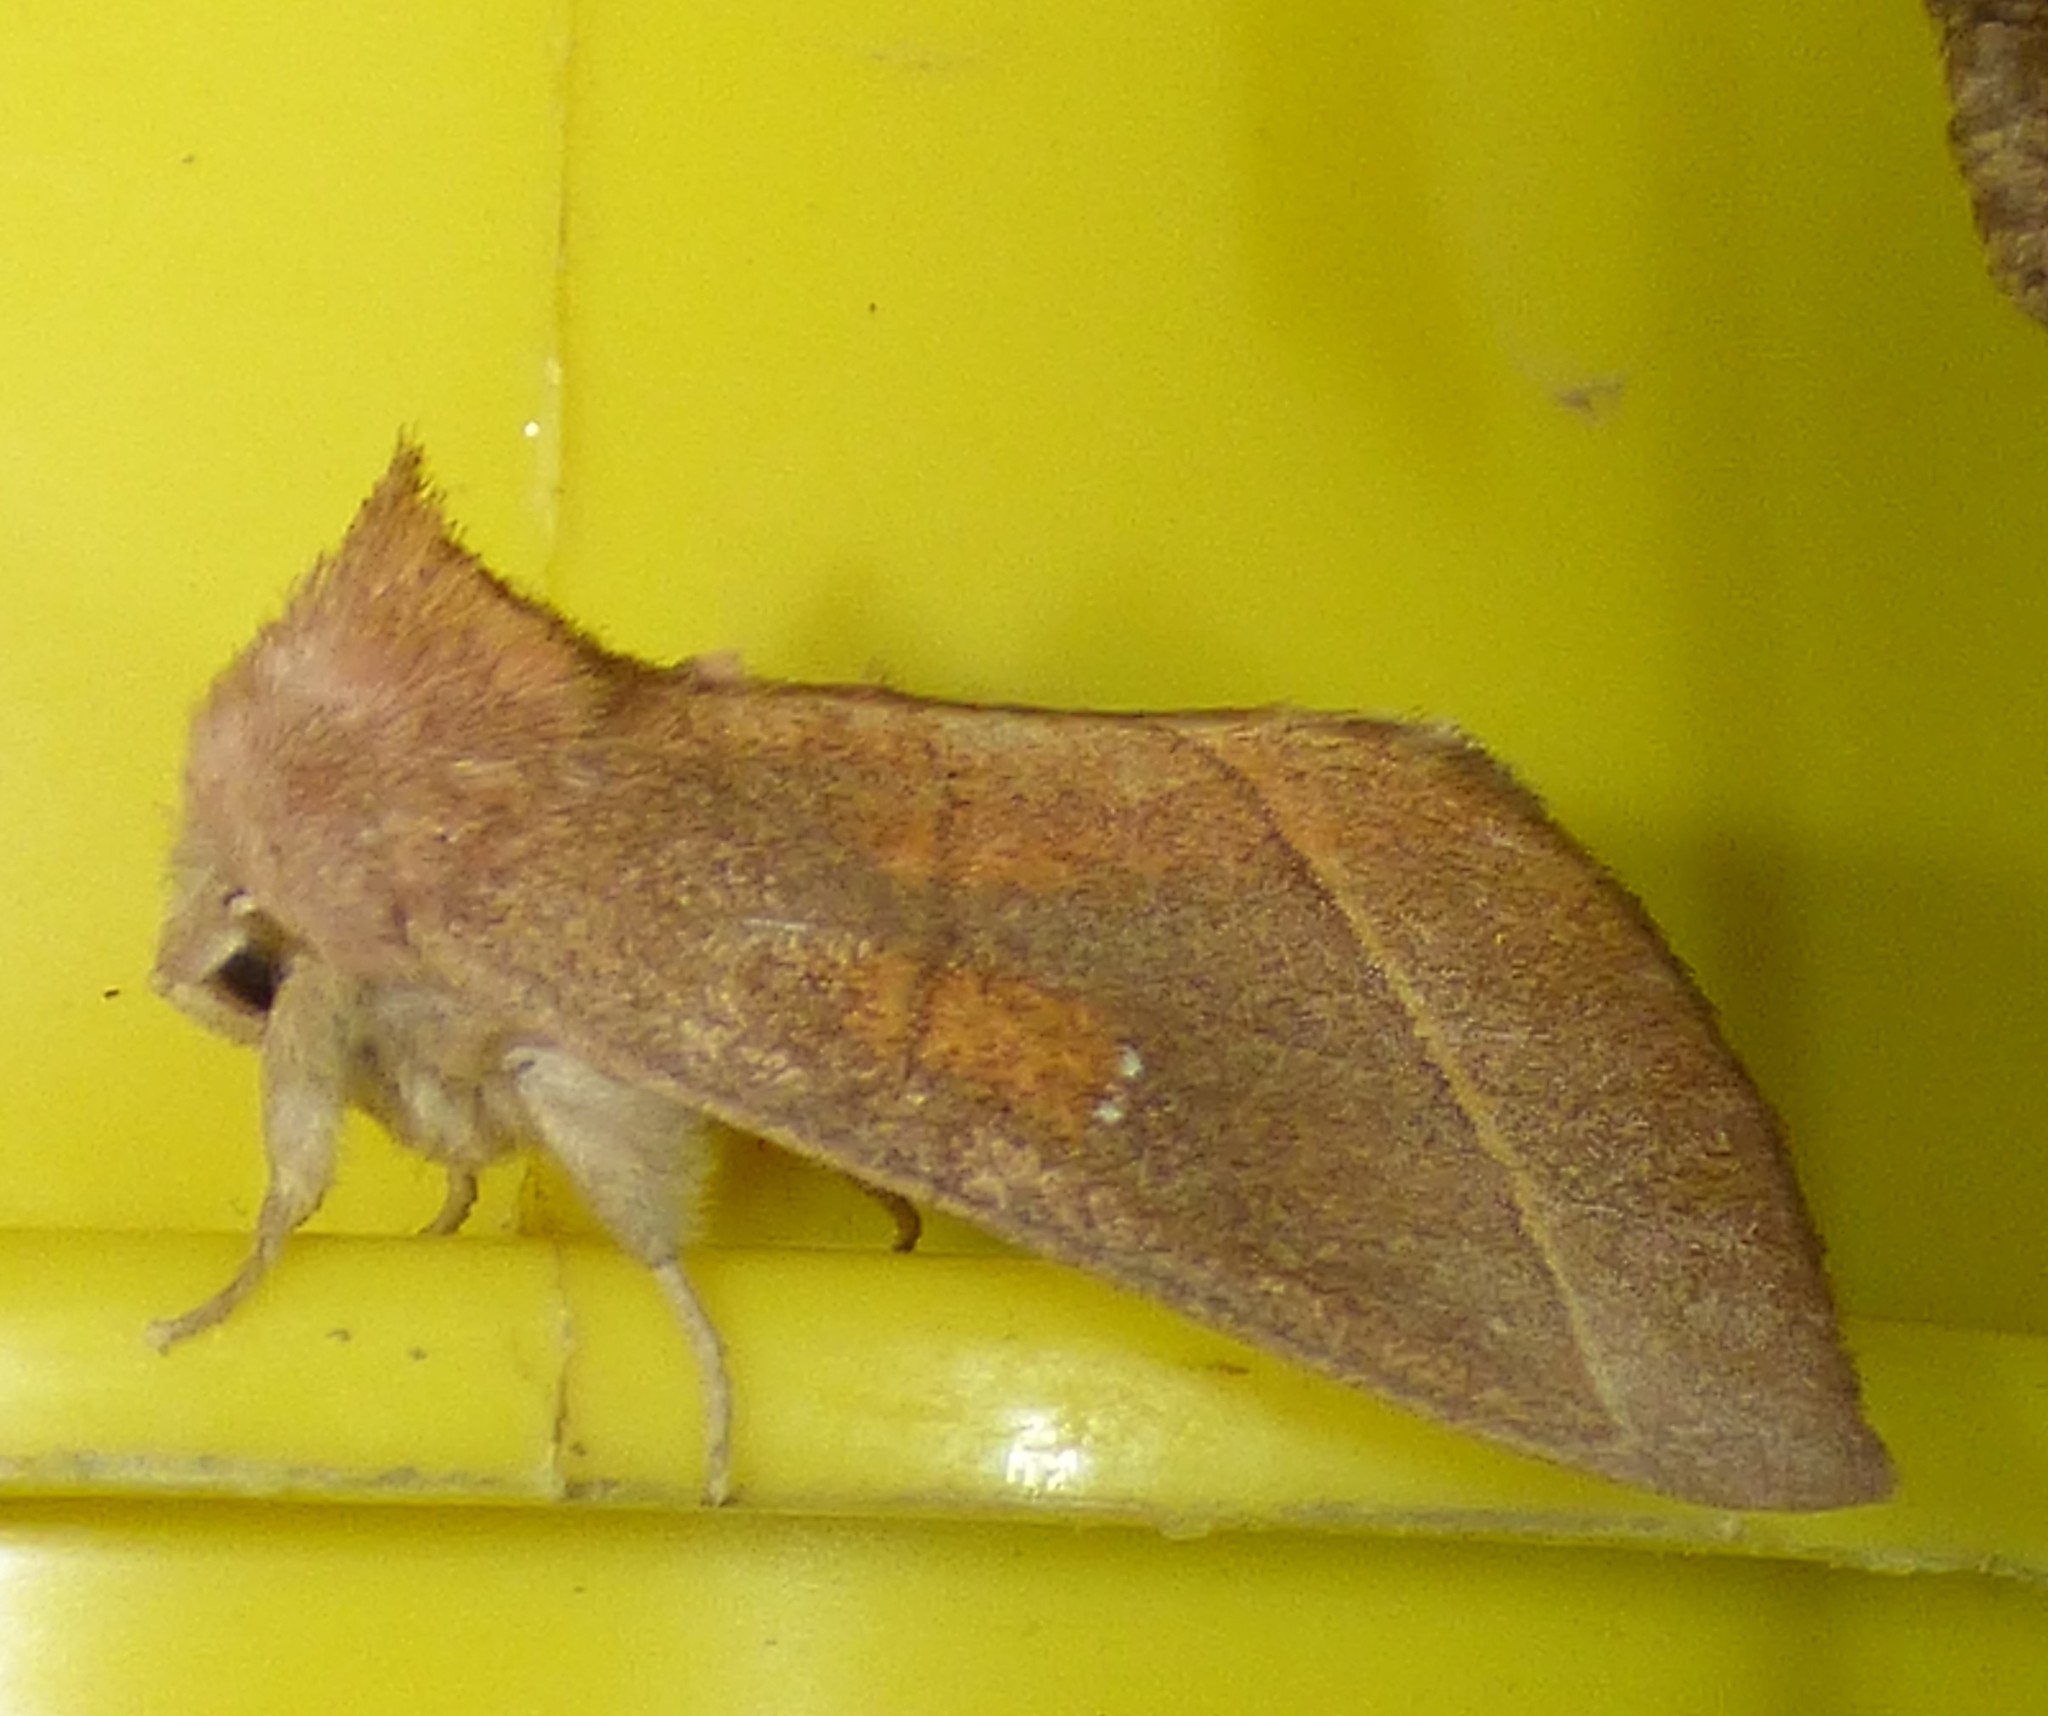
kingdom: Animalia
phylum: Arthropoda
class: Insecta
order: Lepidoptera
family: Notodontidae
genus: Nadata
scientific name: Nadata gibbosa
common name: White-dotted prominent
